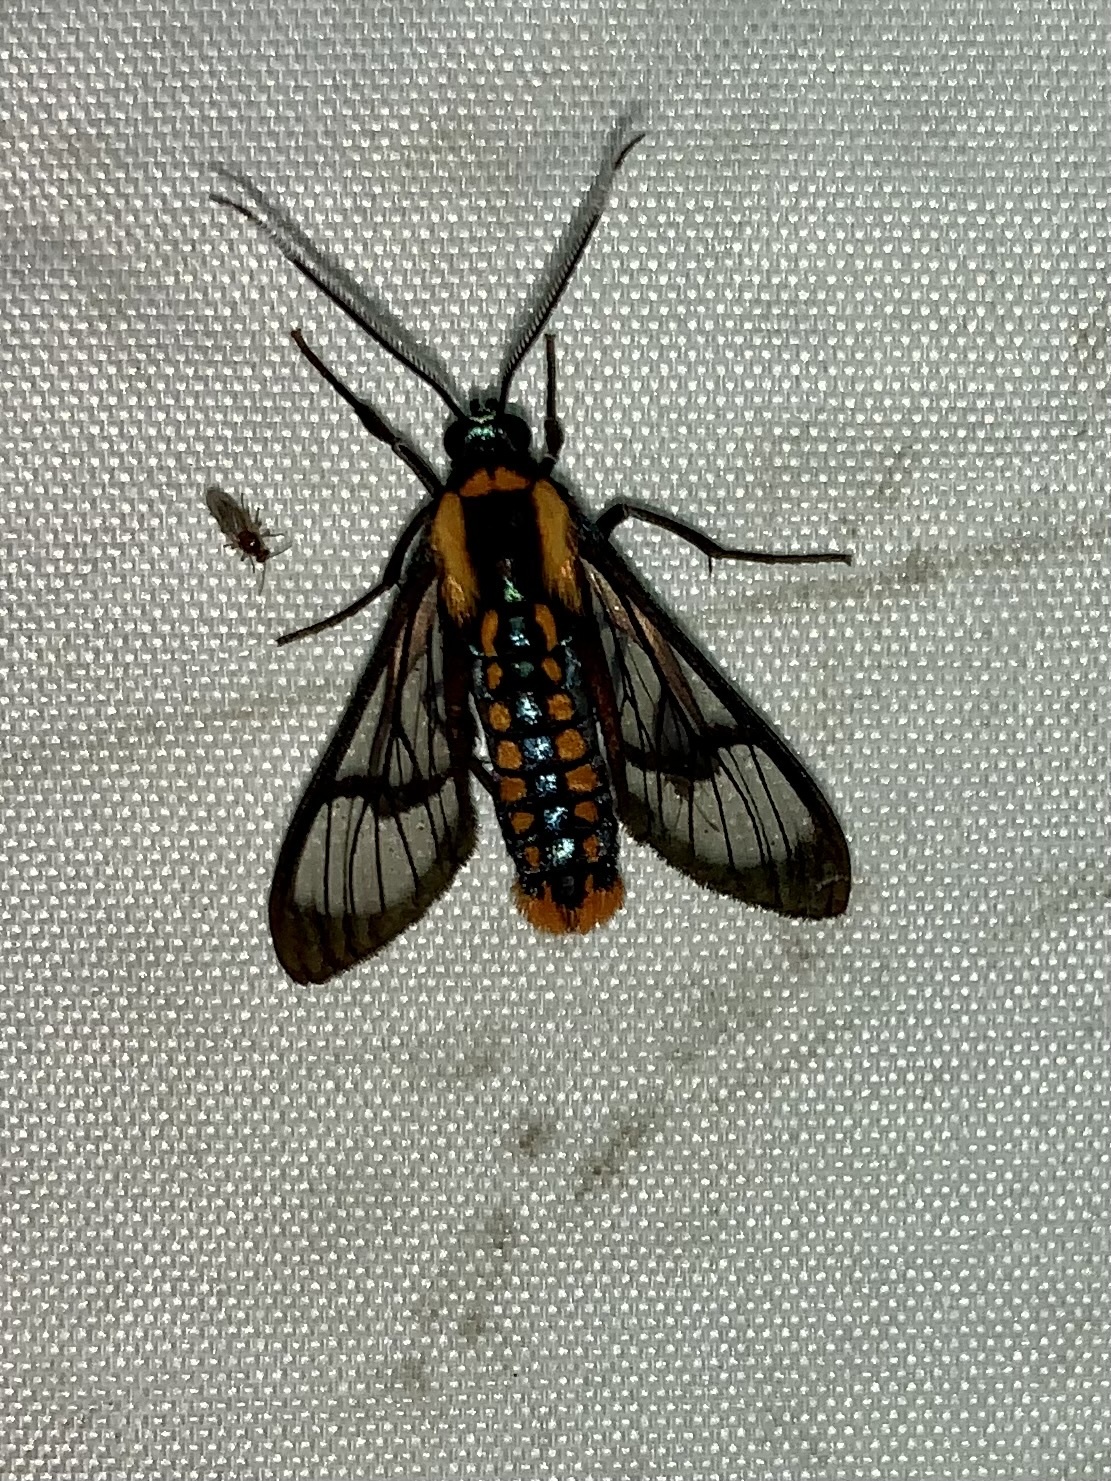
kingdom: Animalia
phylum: Arthropoda
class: Insecta
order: Lepidoptera
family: Erebidae
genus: Phoenicoprocta
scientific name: Phoenicoprocta sanguinea
